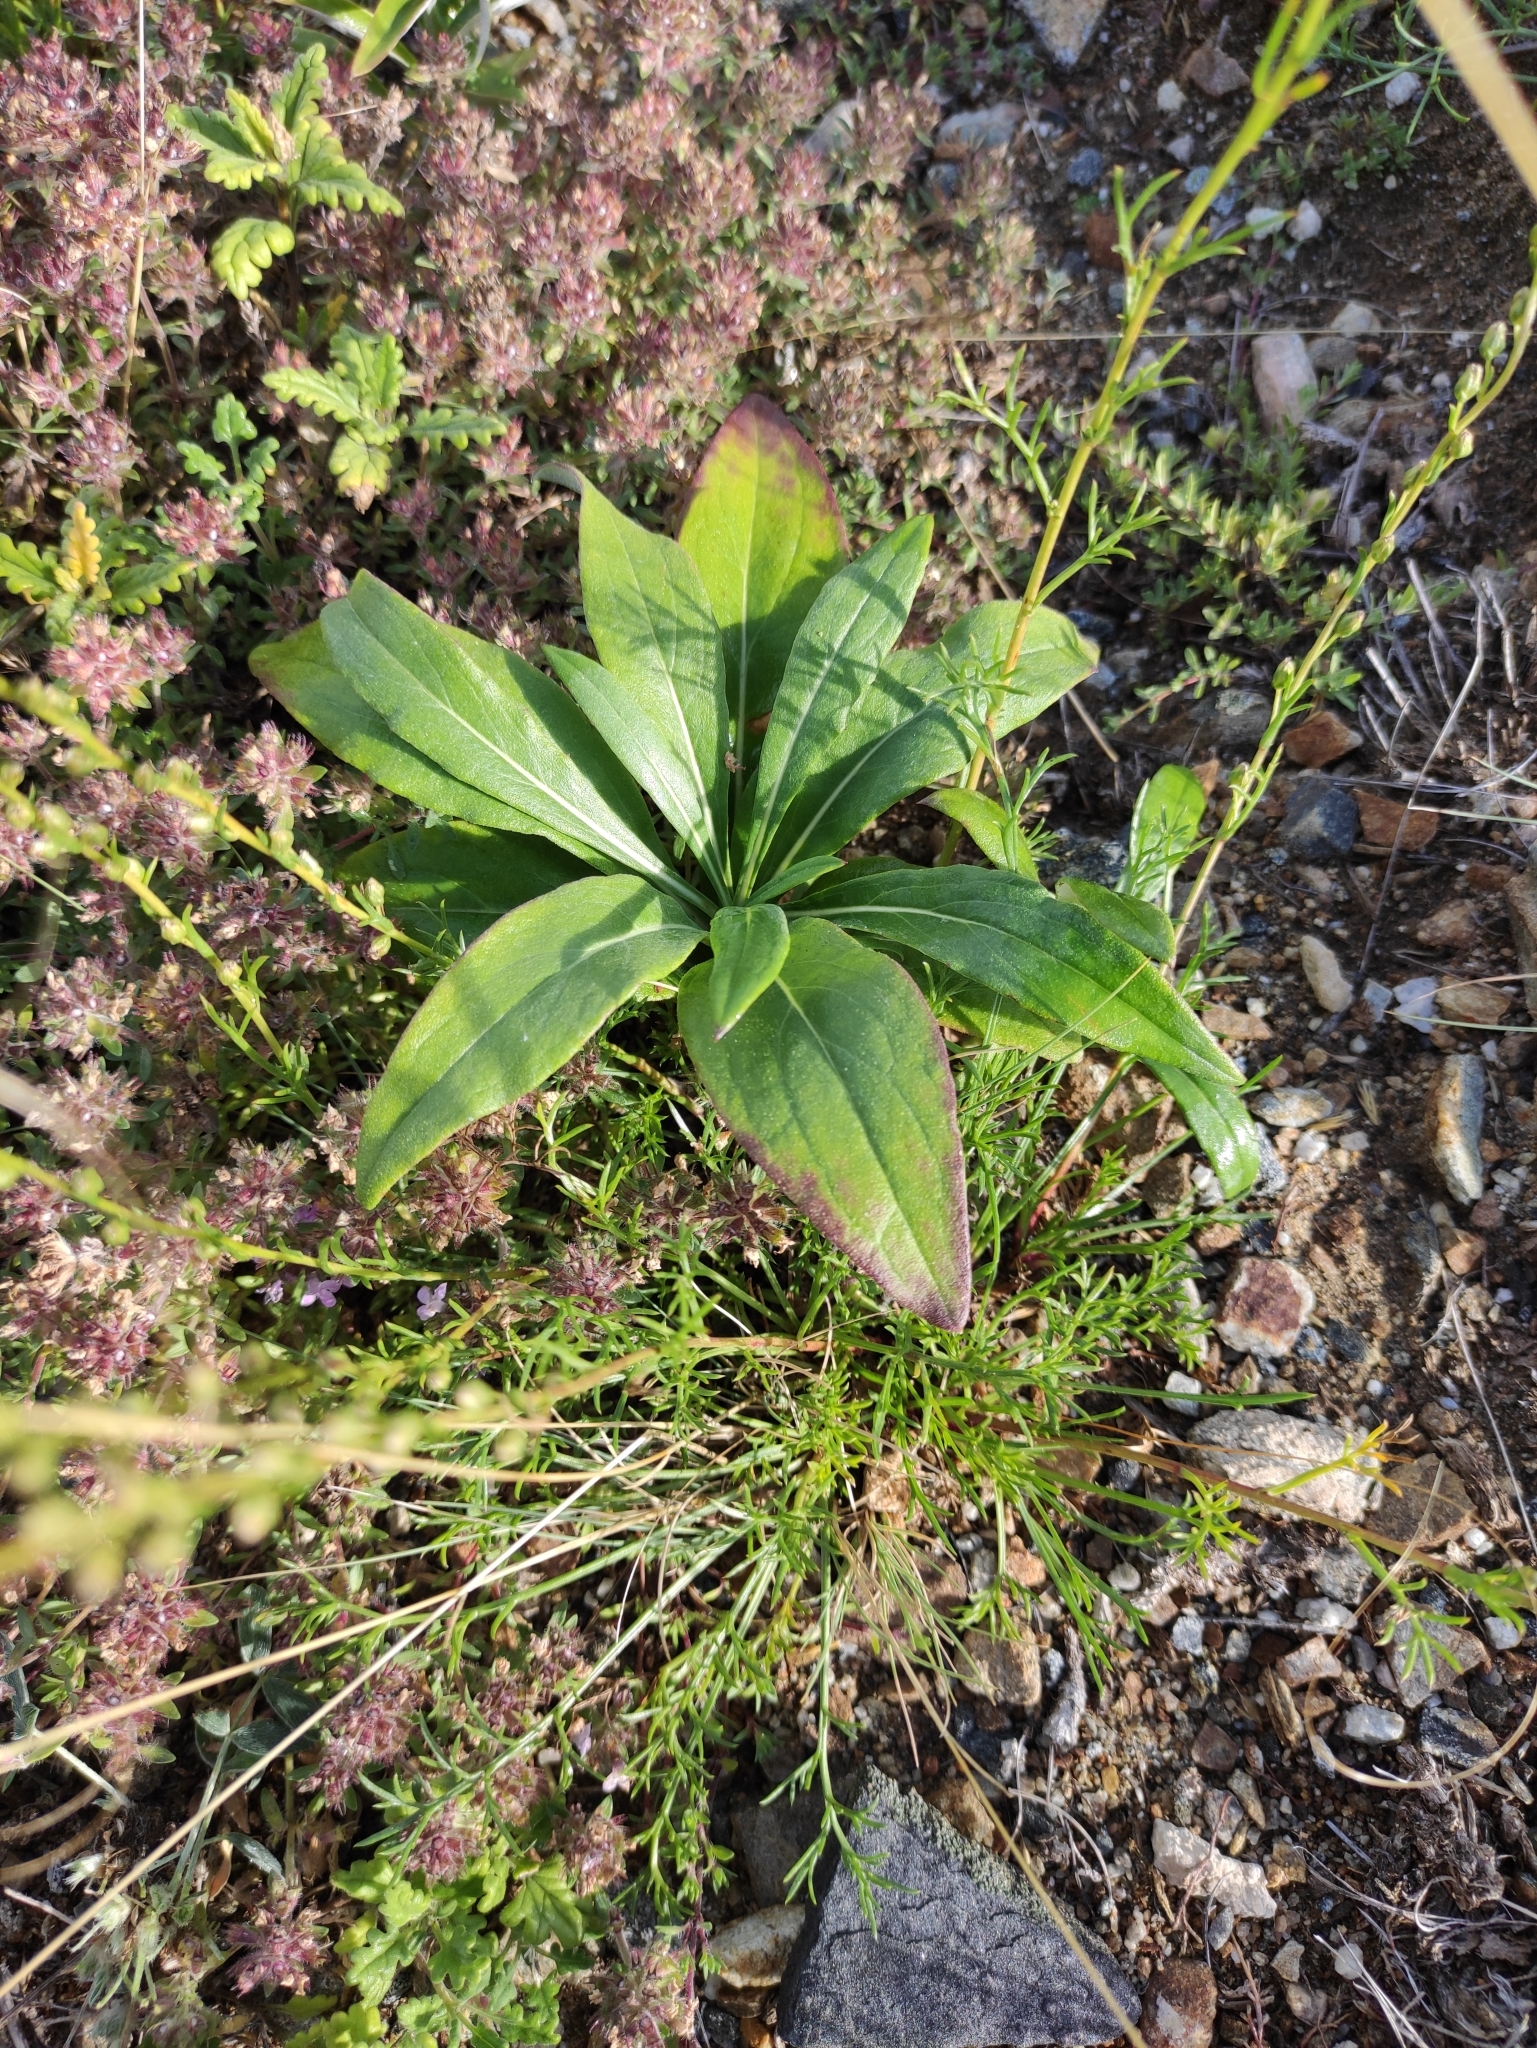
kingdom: Plantae
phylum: Tracheophyta
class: Magnoliopsida
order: Boraginales
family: Boraginaceae
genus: Cynoglossum
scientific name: Cynoglossum officinale
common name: Hound's-tongue
